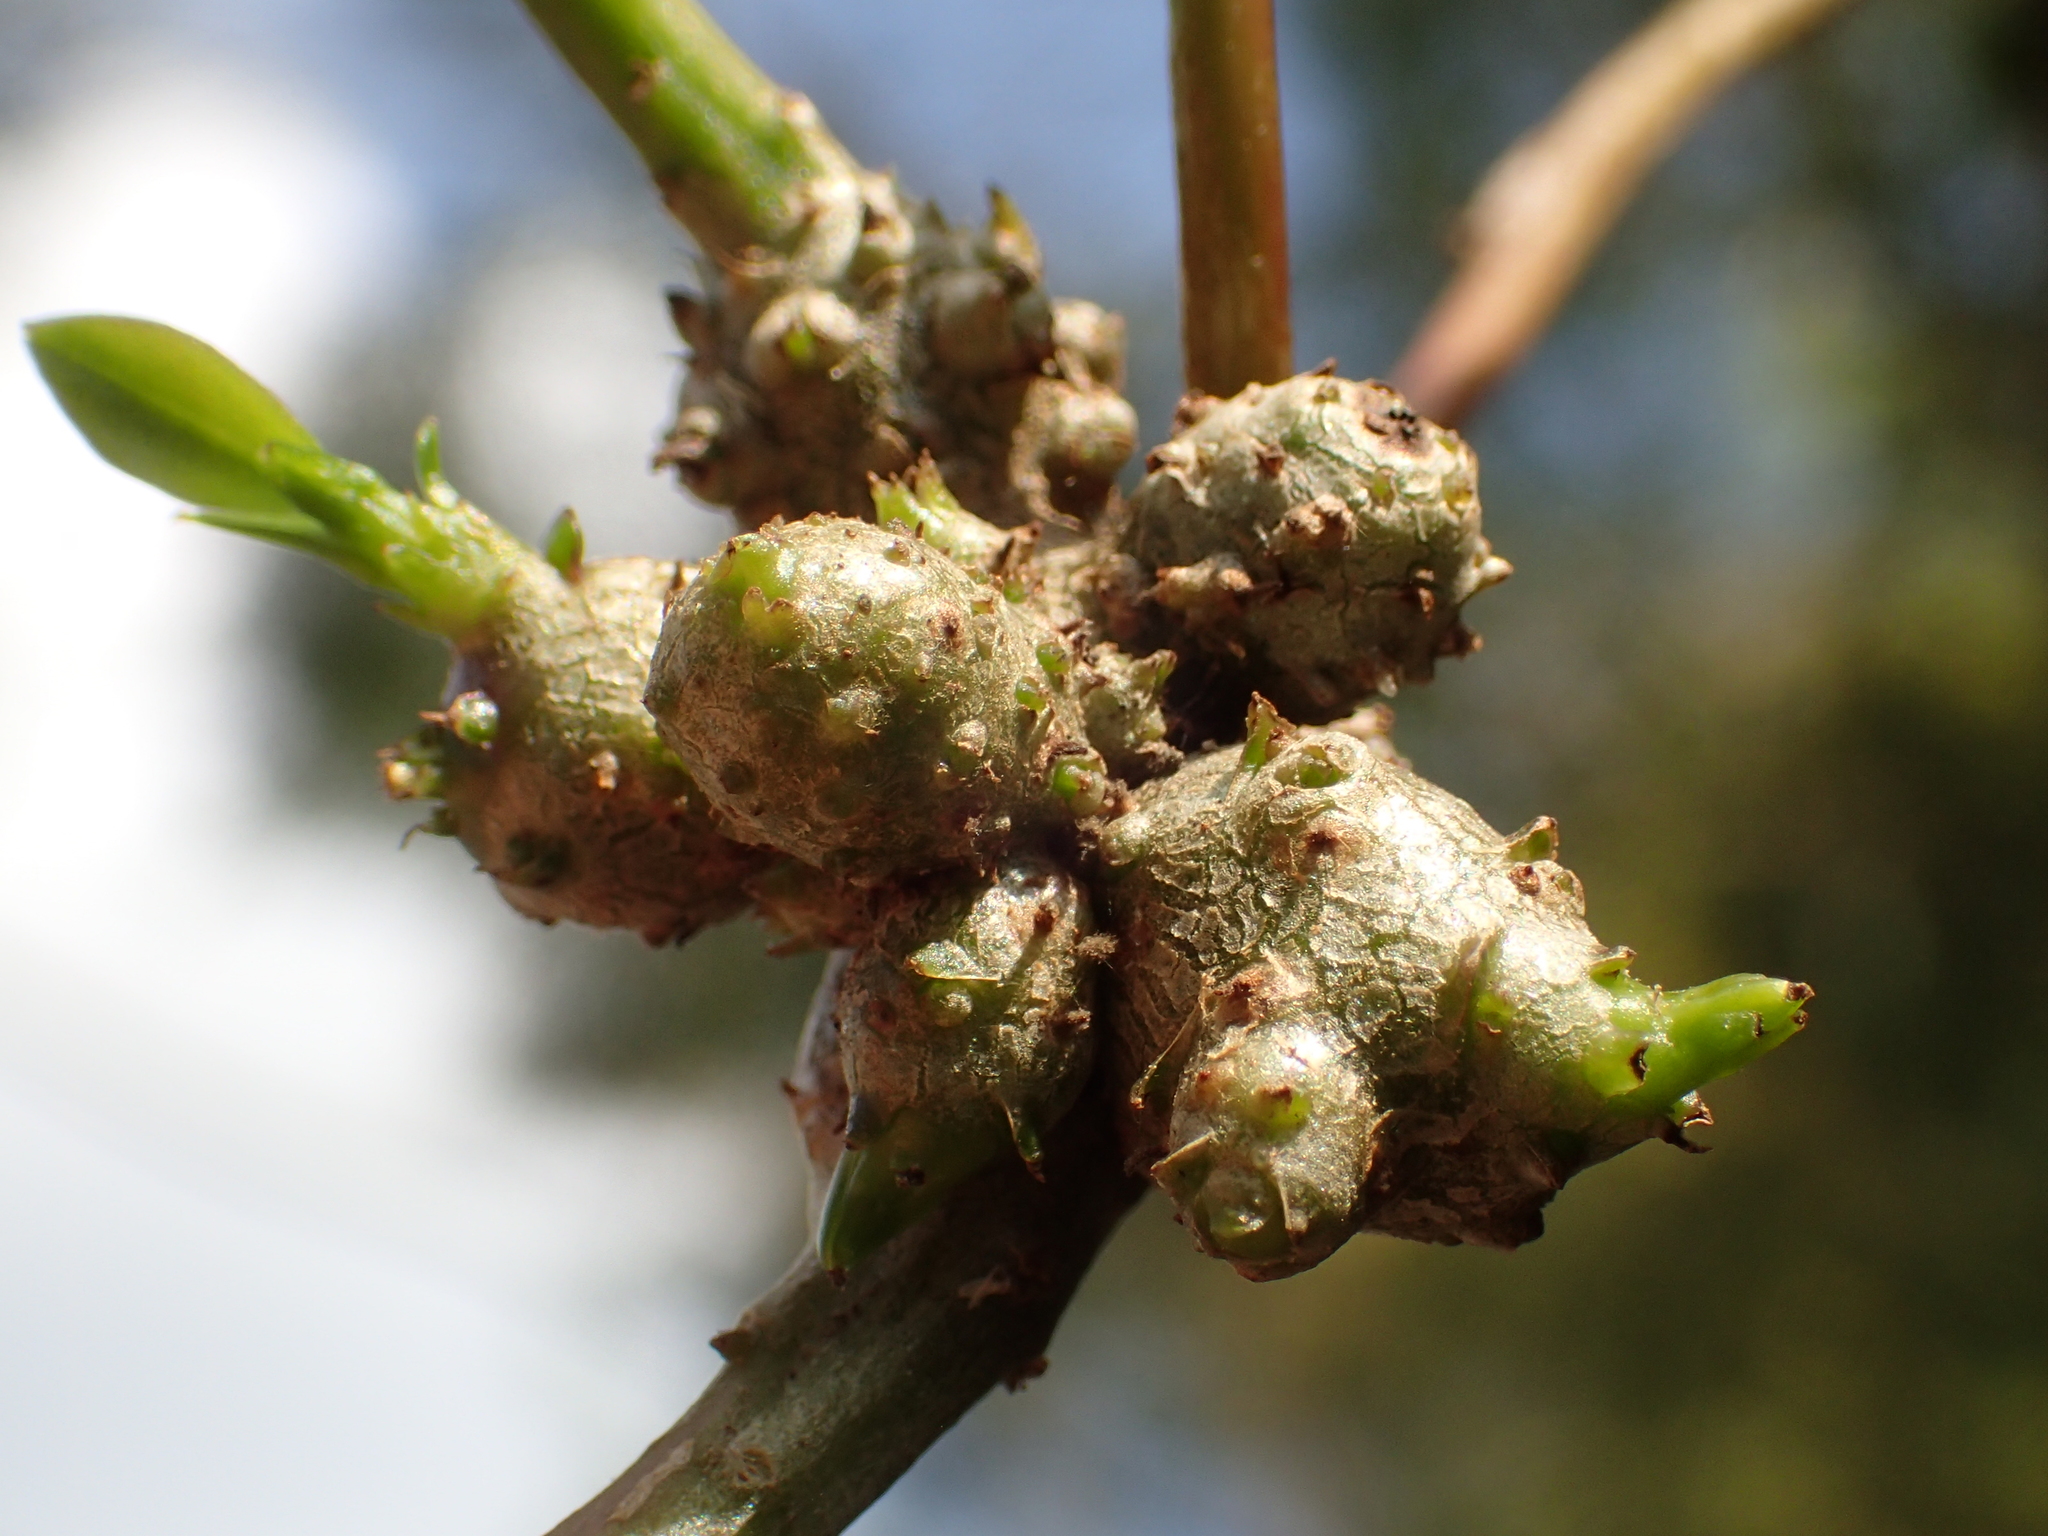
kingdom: Plantae
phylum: Tracheophyta
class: Magnoliopsida
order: Caryophyllales
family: Basellaceae
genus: Anredera
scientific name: Anredera cordifolia
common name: Heartleaf madeiravine
